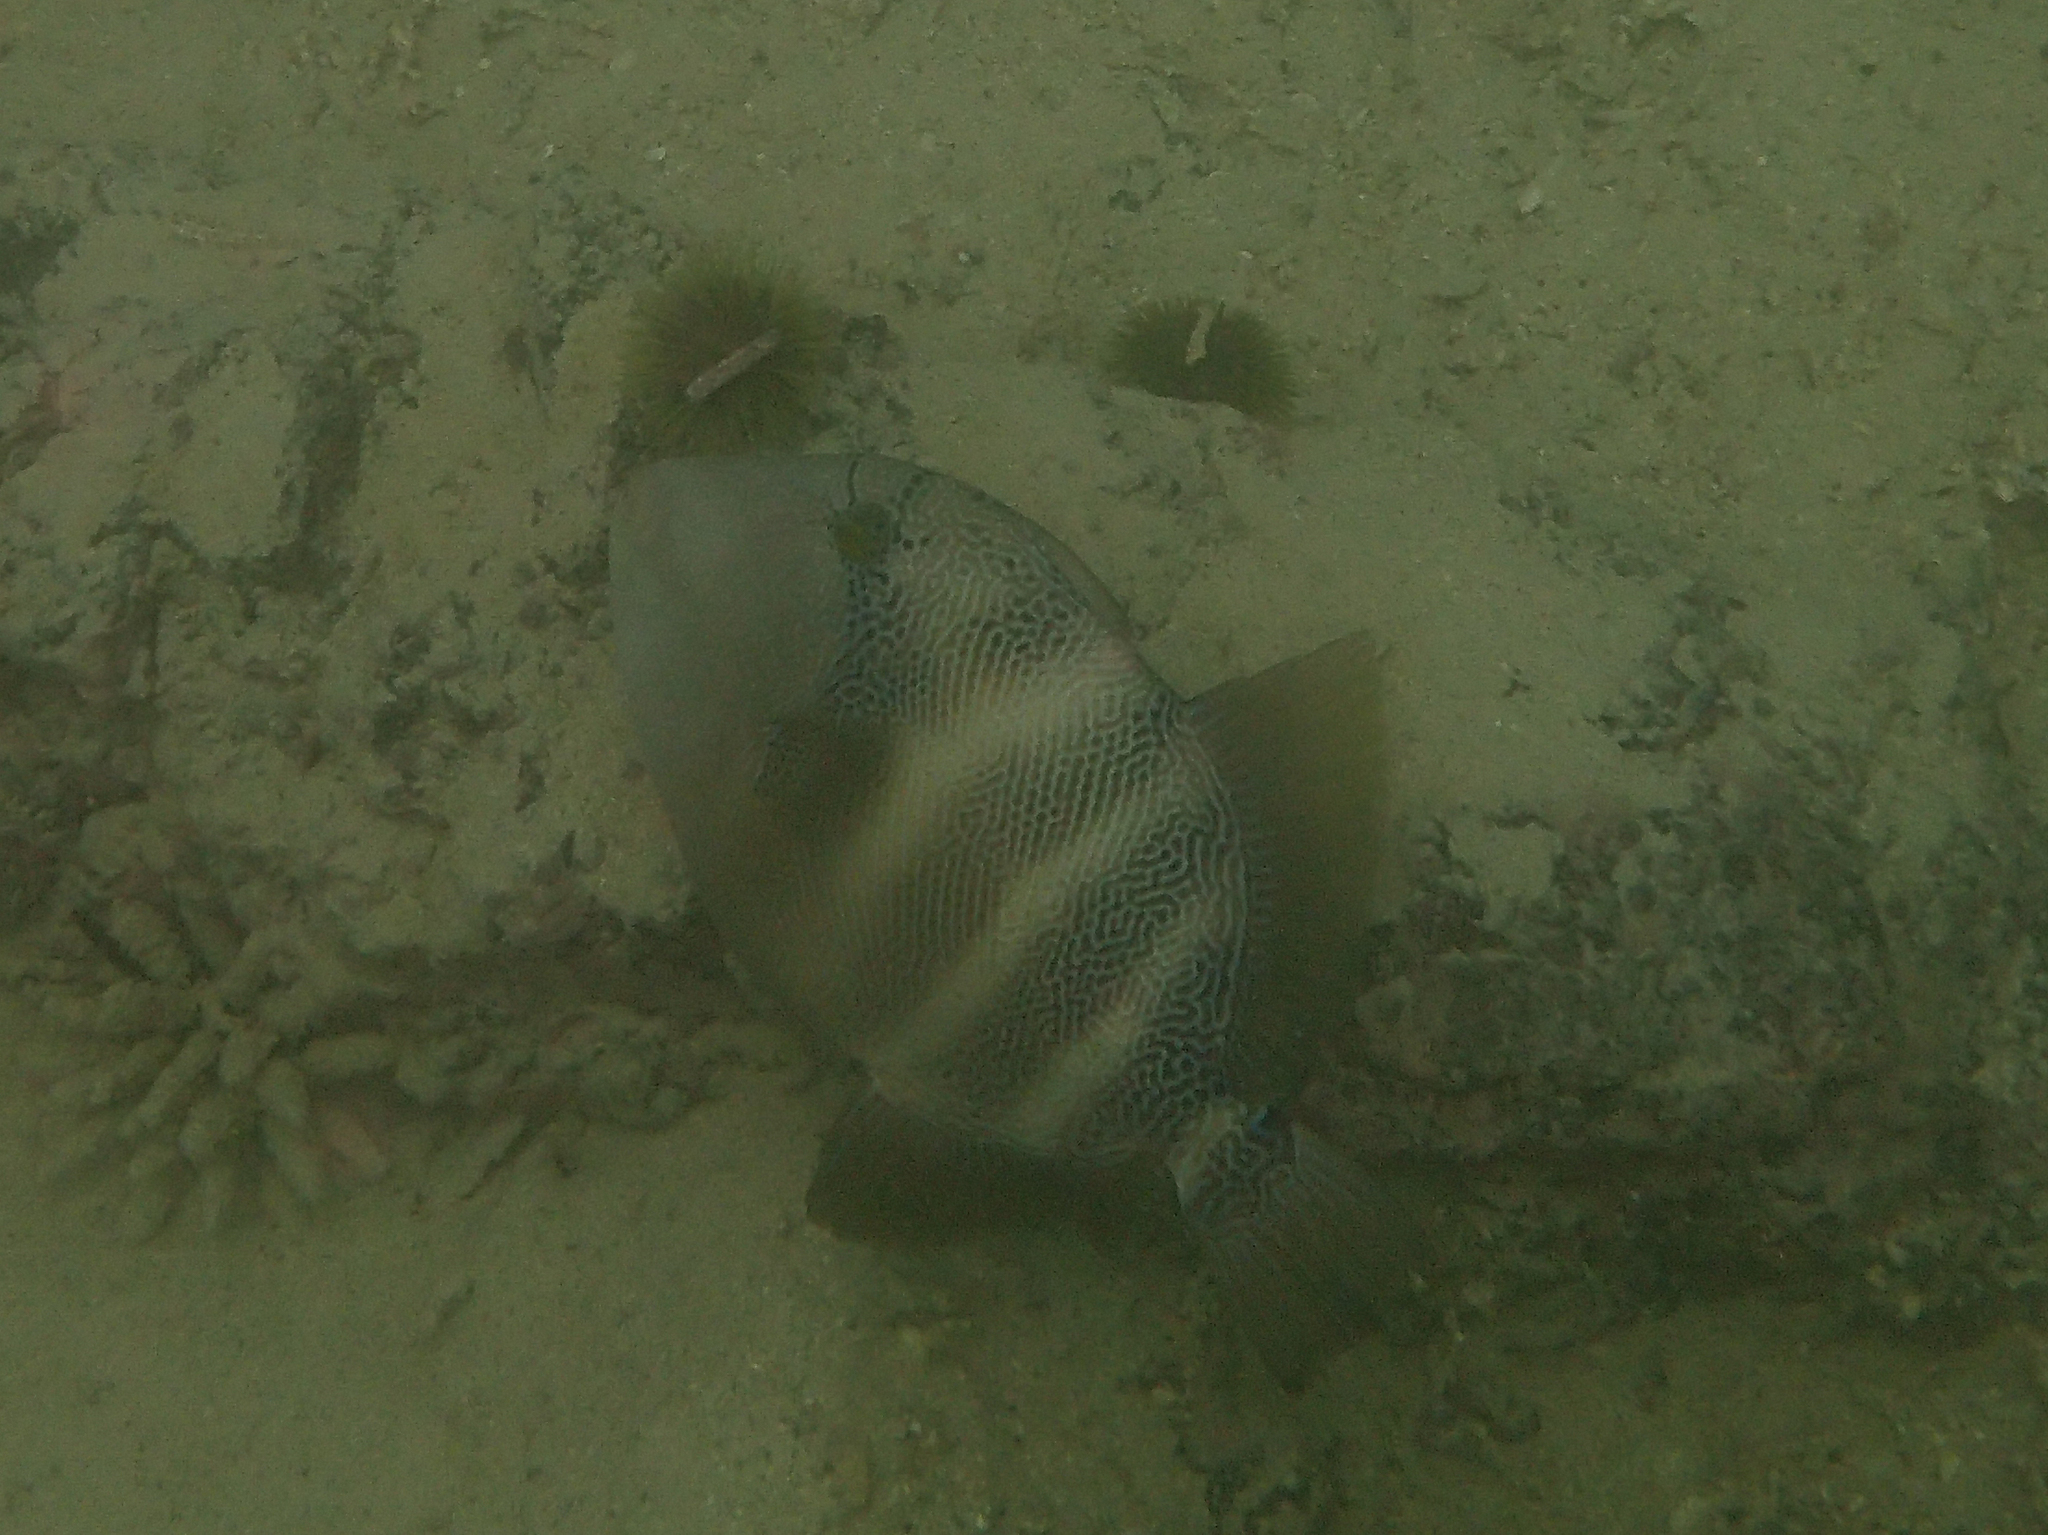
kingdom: Animalia
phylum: Chordata
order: Tetraodontiformes
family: Balistidae
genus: Pseudobalistes
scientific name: Pseudobalistes naufragium
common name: Blunthead triggerfish
